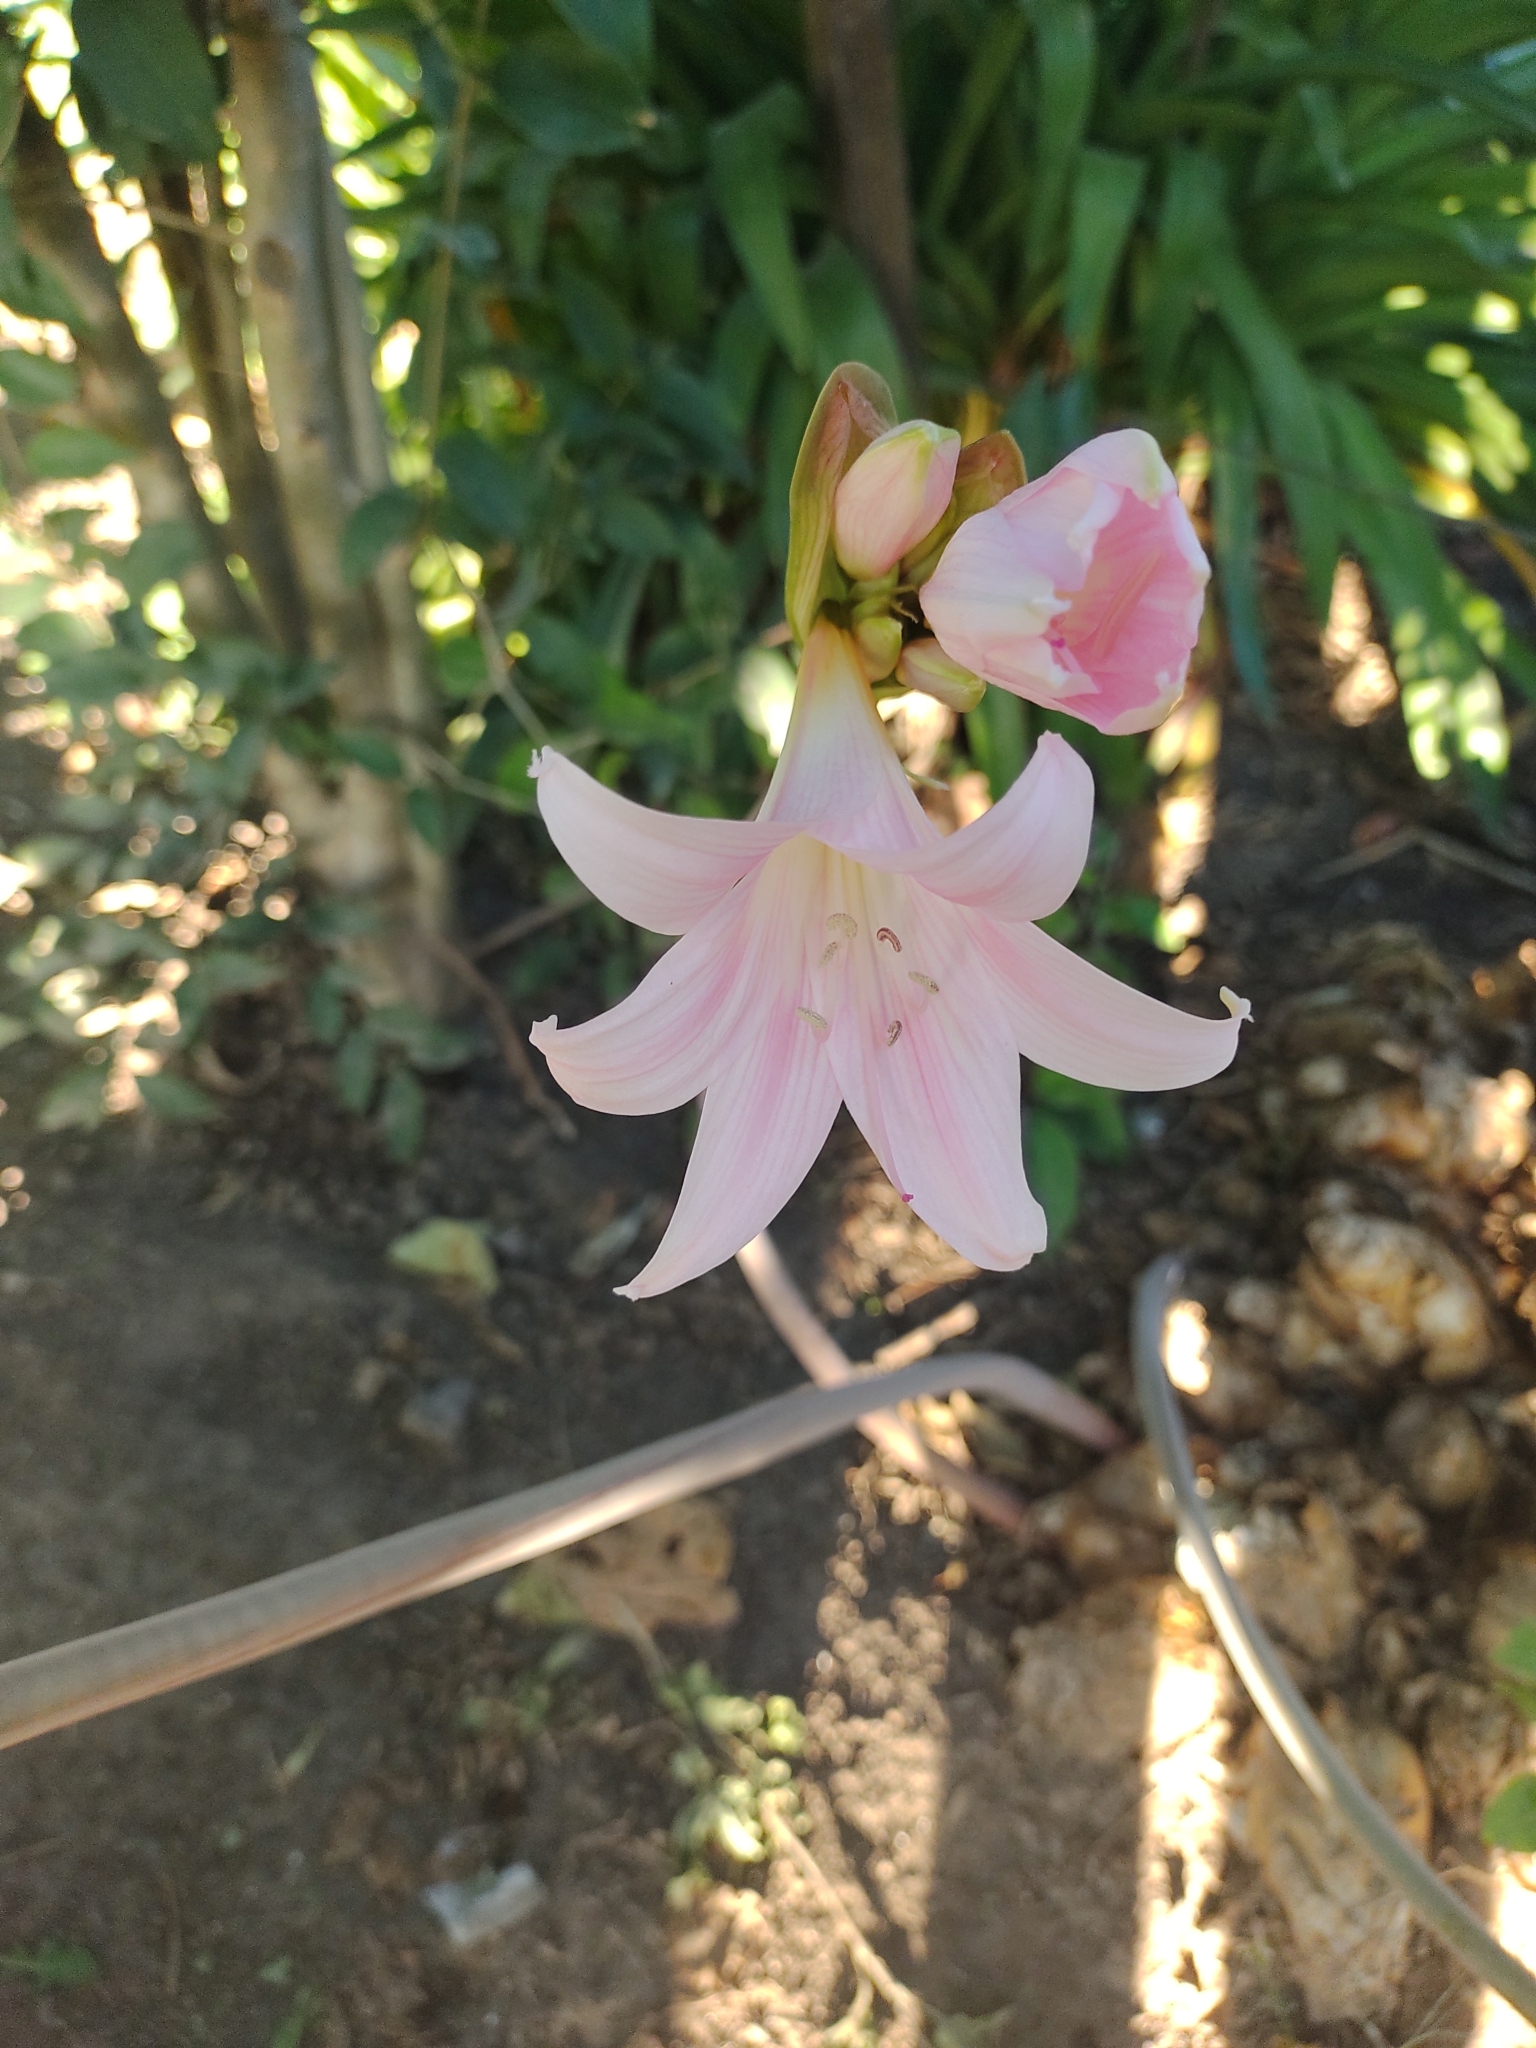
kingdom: Plantae
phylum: Tracheophyta
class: Liliopsida
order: Asparagales
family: Amaryllidaceae
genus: Amaryllis
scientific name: Amaryllis belladonna
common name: Jersey lily
